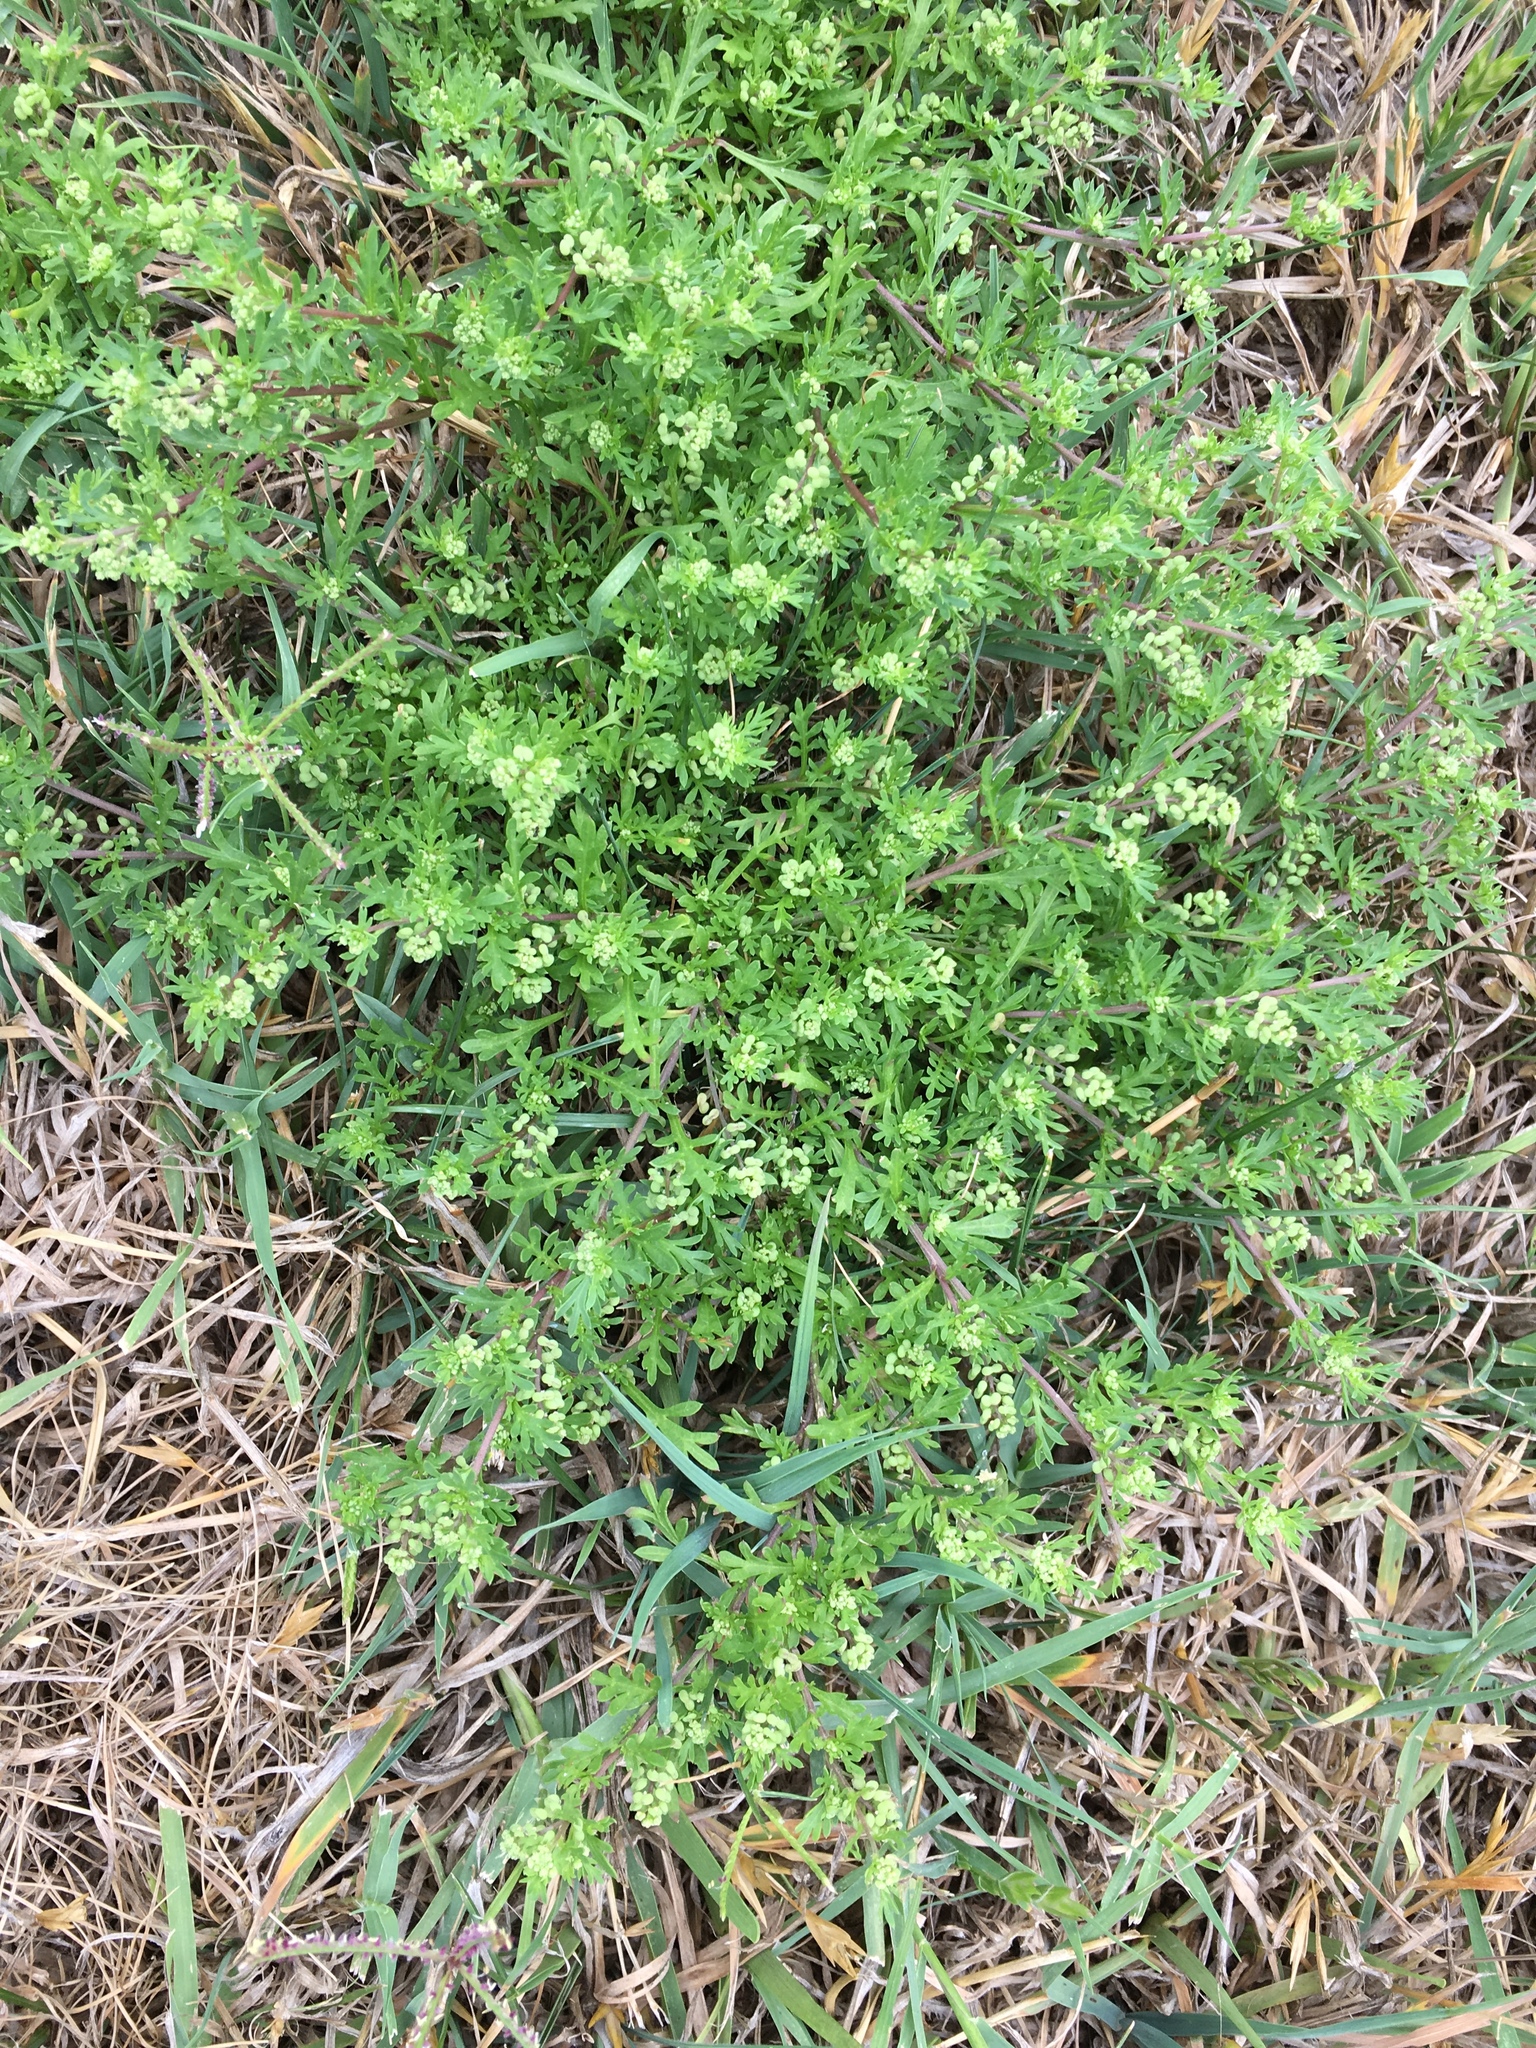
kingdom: Plantae
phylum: Tracheophyta
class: Magnoliopsida
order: Brassicales
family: Brassicaceae
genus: Lepidium
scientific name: Lepidium didymum
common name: Lesser swinecress
